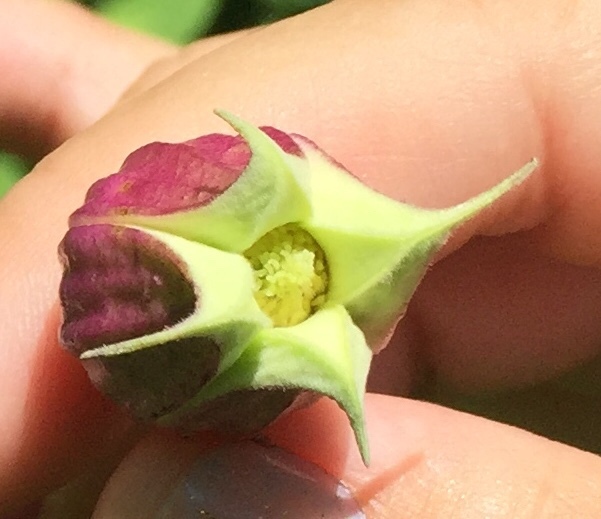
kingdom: Plantae
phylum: Tracheophyta
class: Magnoliopsida
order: Ranunculales
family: Ranunculaceae
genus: Clematis
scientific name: Clematis viorna
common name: Leather-flower
